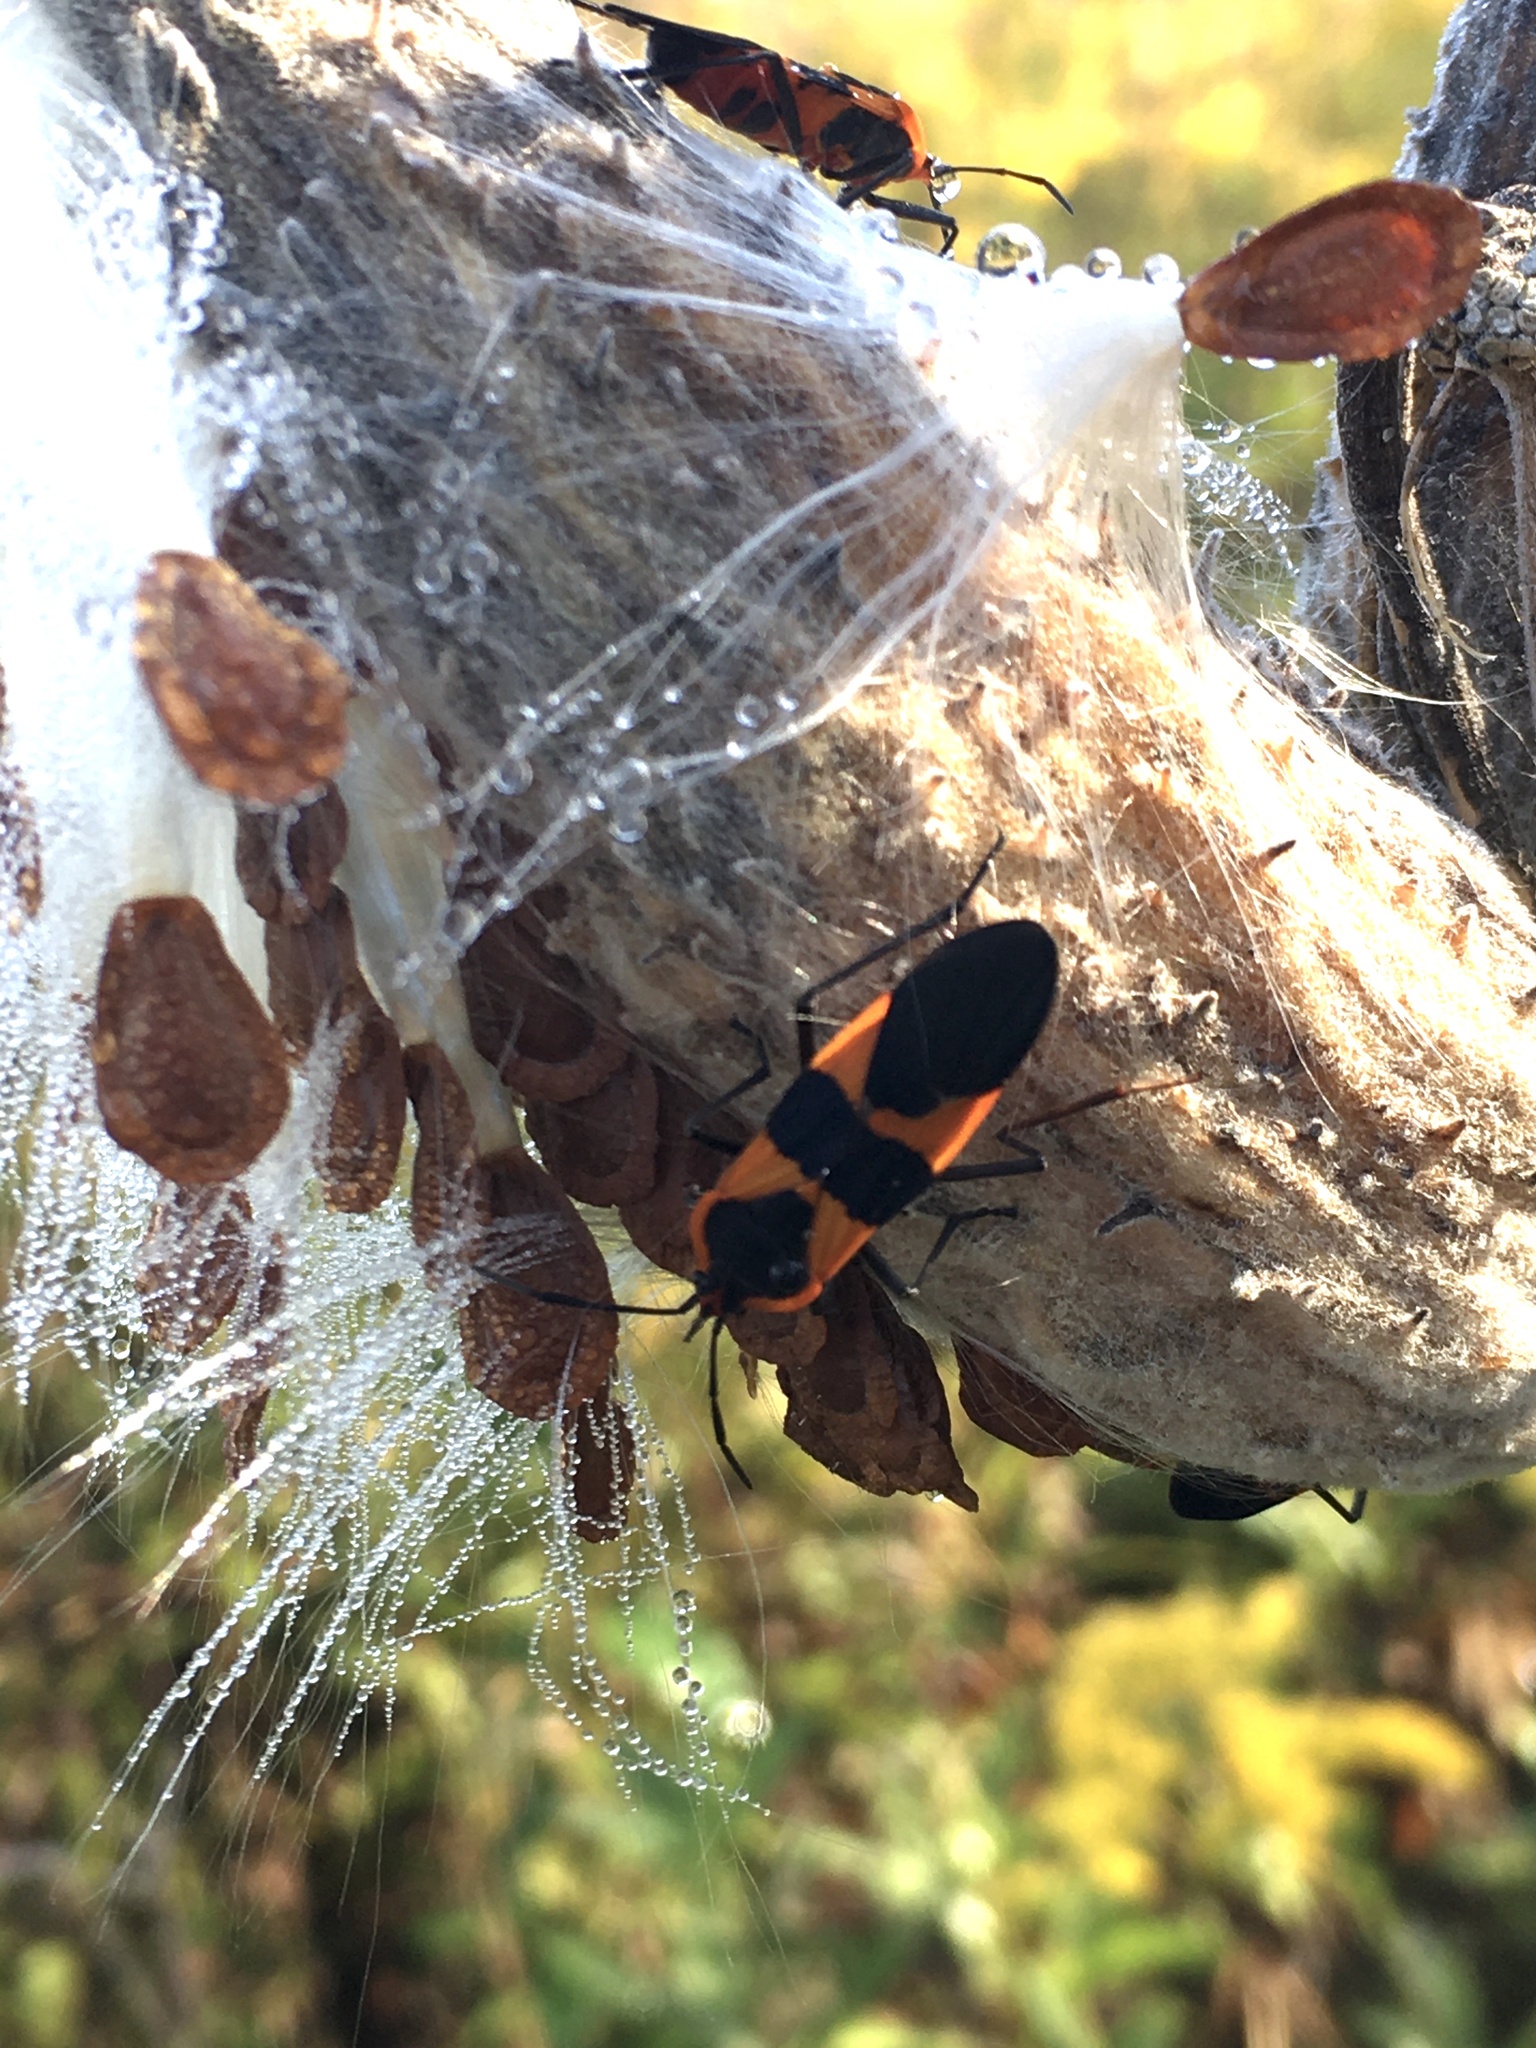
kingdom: Animalia
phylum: Arthropoda
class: Insecta
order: Hemiptera
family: Lygaeidae
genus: Oncopeltus
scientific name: Oncopeltus fasciatus
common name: Large milkweed bug
